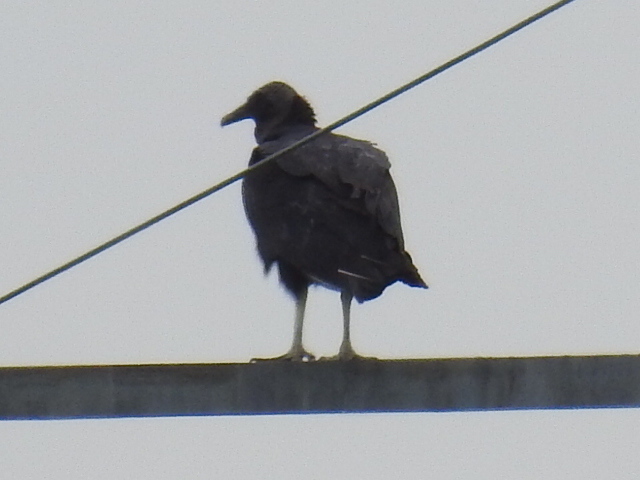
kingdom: Animalia
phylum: Chordata
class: Aves
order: Accipitriformes
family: Cathartidae
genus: Coragyps
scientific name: Coragyps atratus
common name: Black vulture
